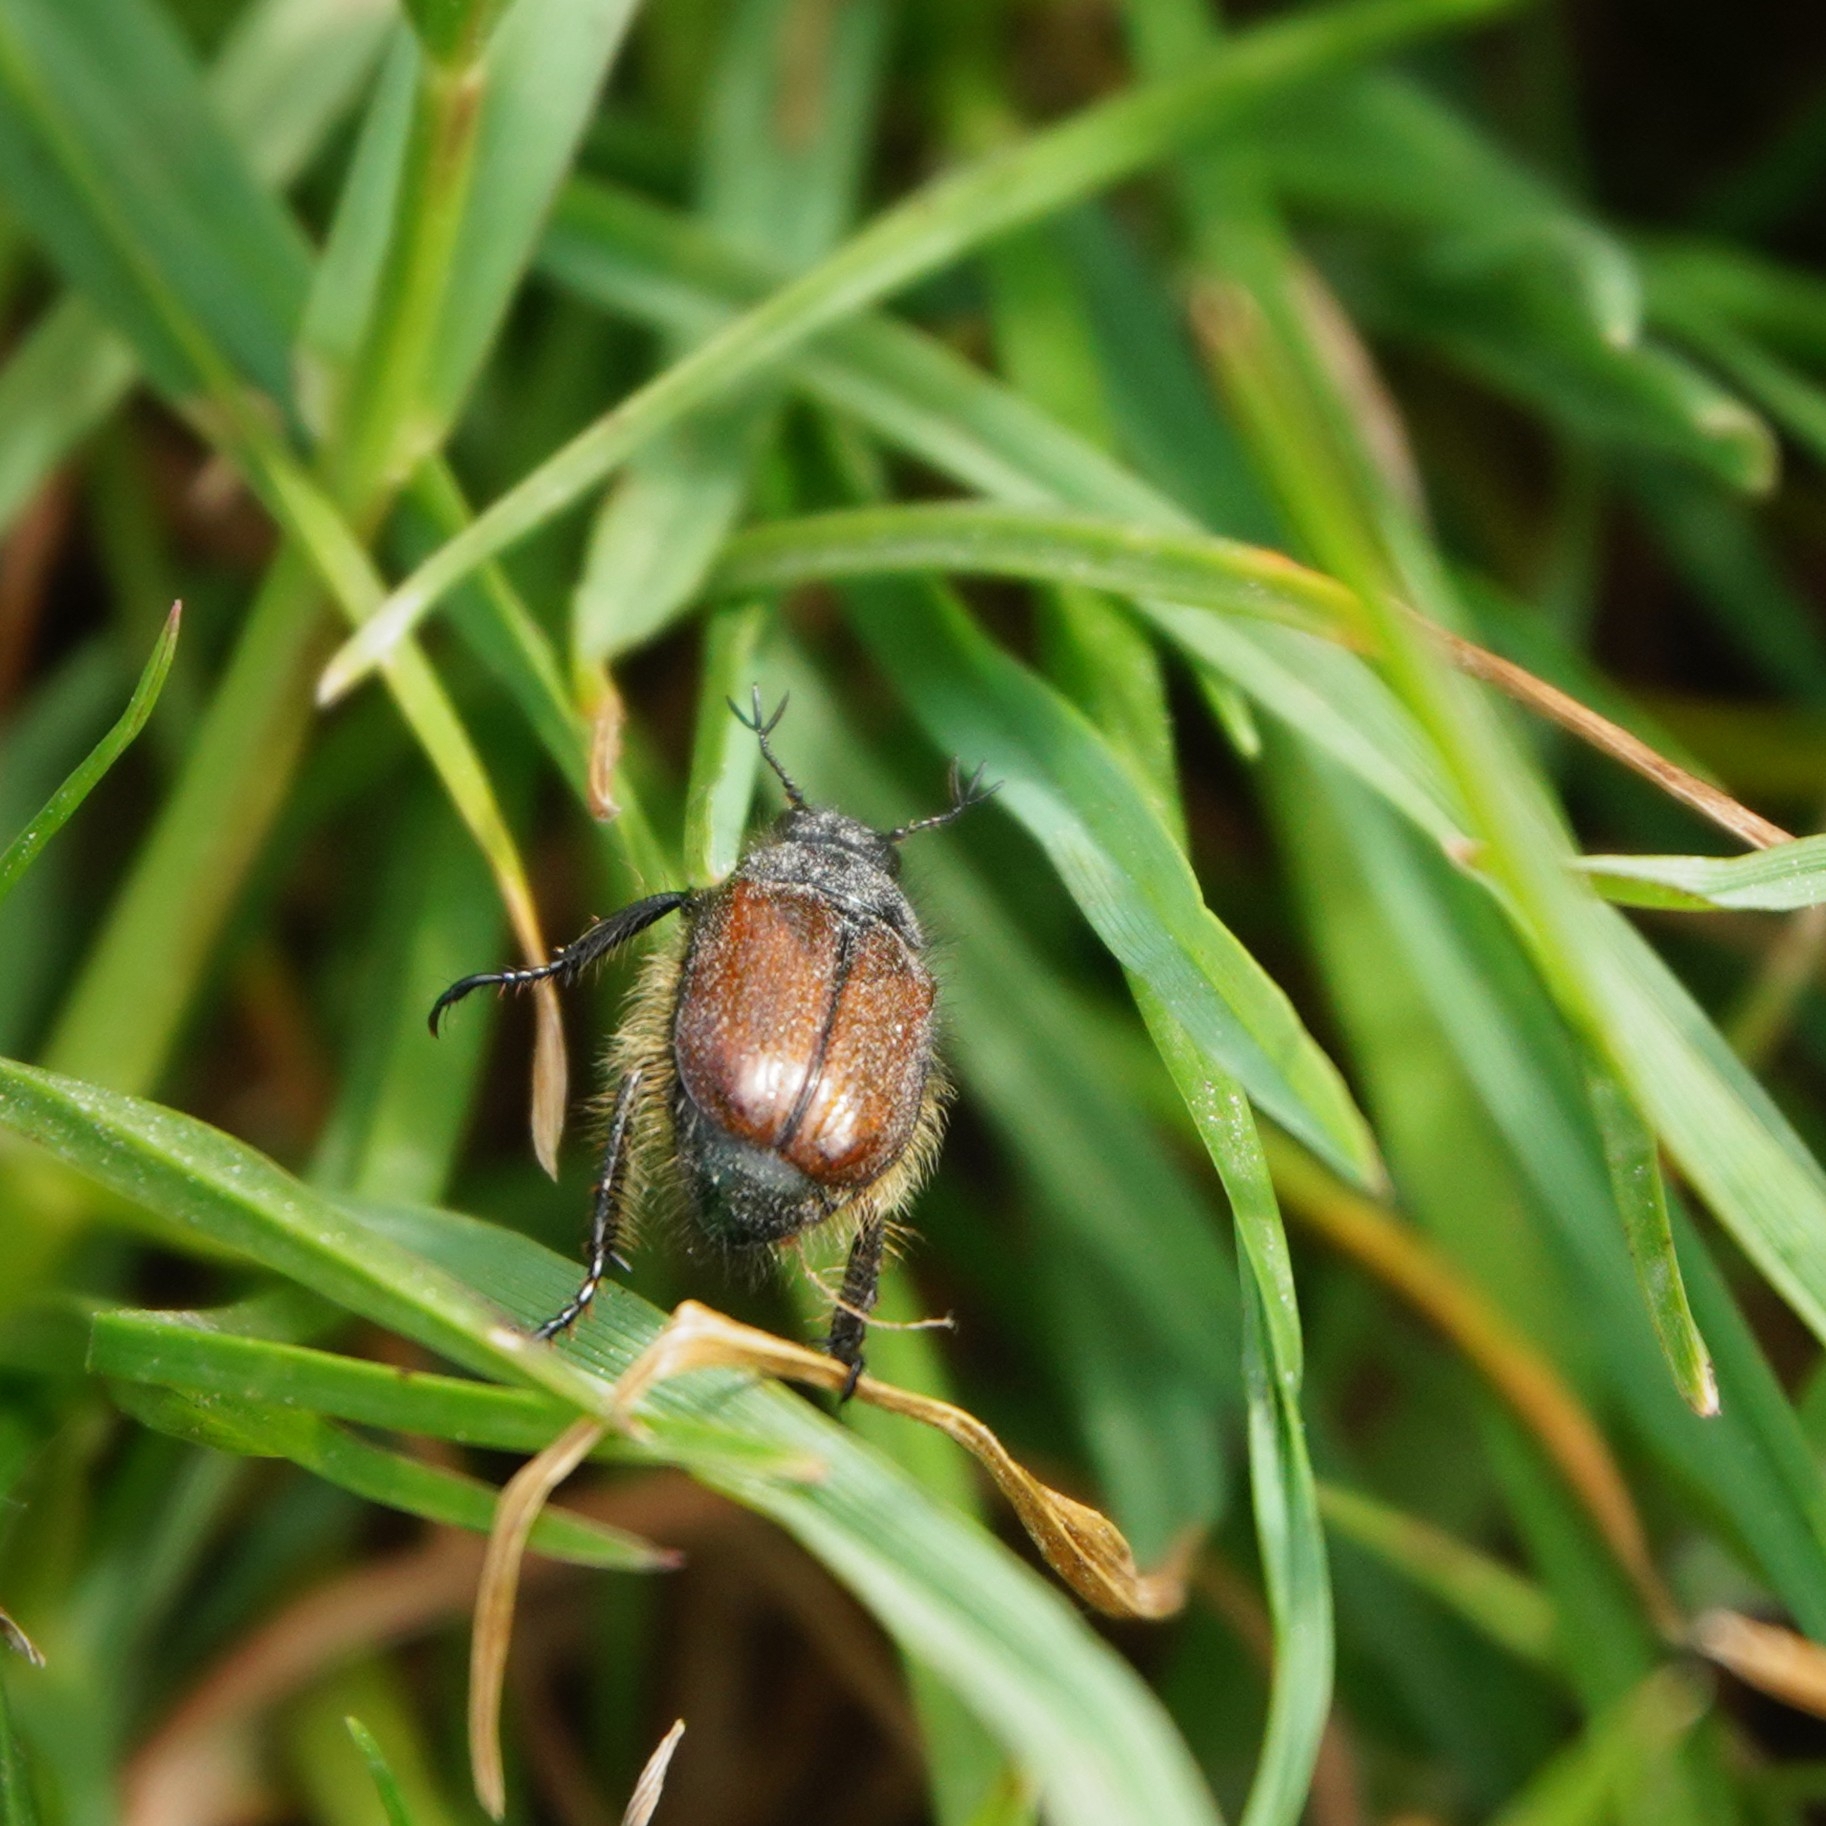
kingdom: Animalia
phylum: Arthropoda
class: Insecta
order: Coleoptera
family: Scarabaeidae
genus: Phyllopertha
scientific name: Phyllopertha horticola
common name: Garden chafer
